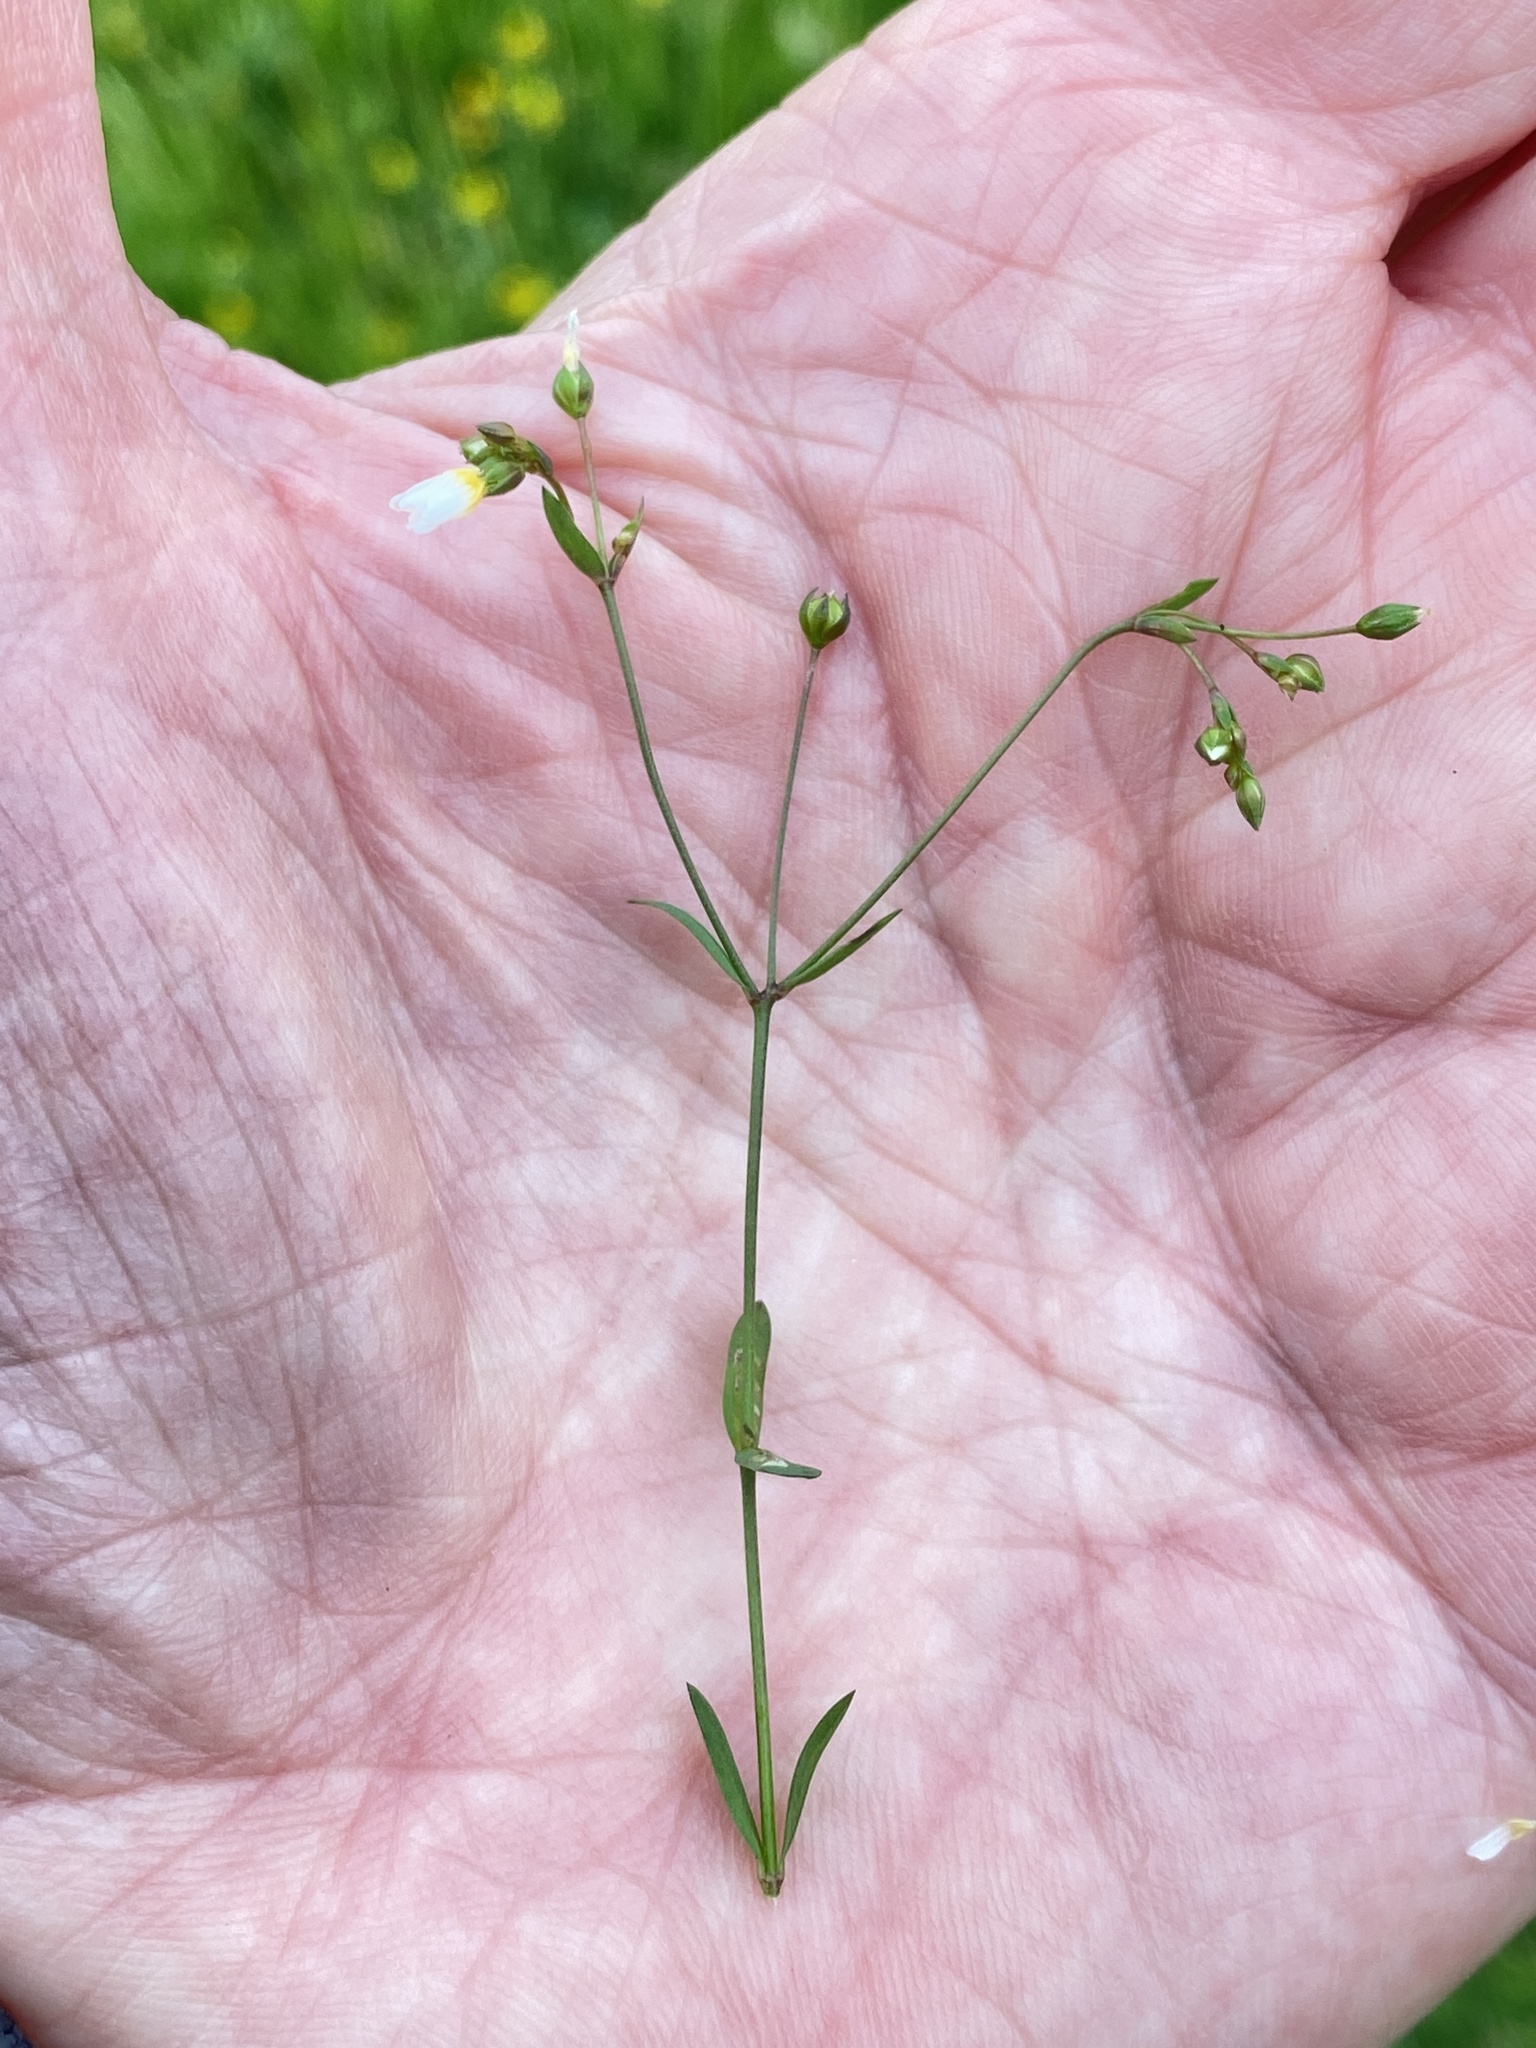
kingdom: Plantae
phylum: Tracheophyta
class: Magnoliopsida
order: Malpighiales
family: Linaceae
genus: Linum
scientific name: Linum catharticum
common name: Fairy flax
